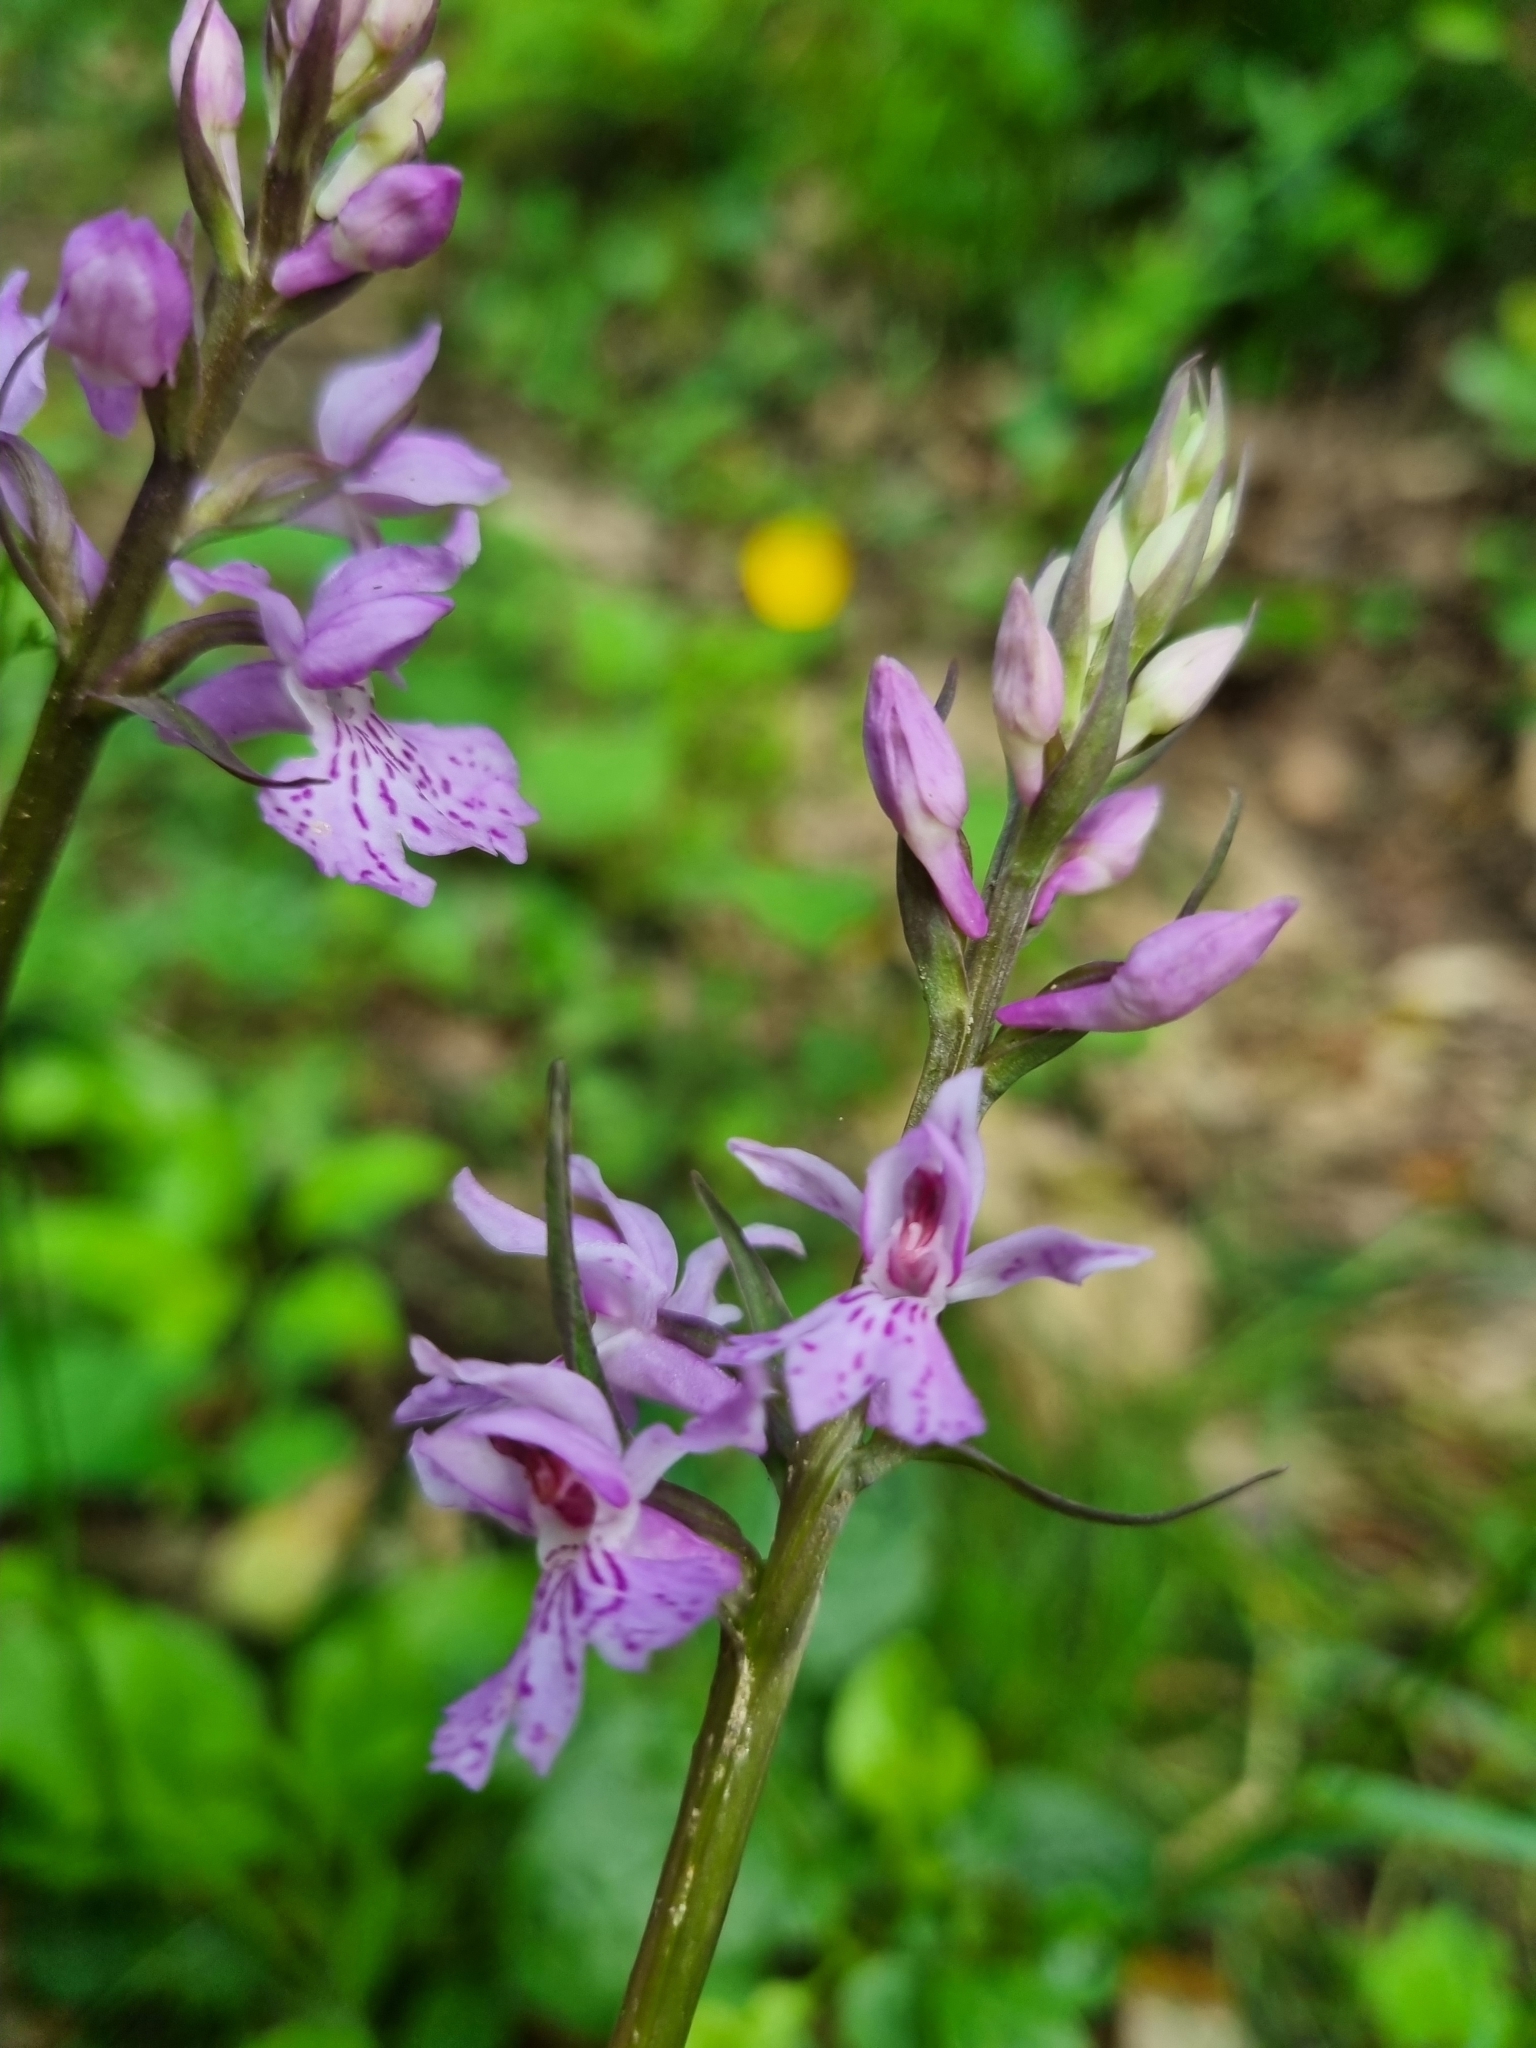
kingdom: Plantae
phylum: Tracheophyta
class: Liliopsida
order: Asparagales
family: Orchidaceae
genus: Dactylorhiza
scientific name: Dactylorhiza maculata
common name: Heath spotted-orchid
